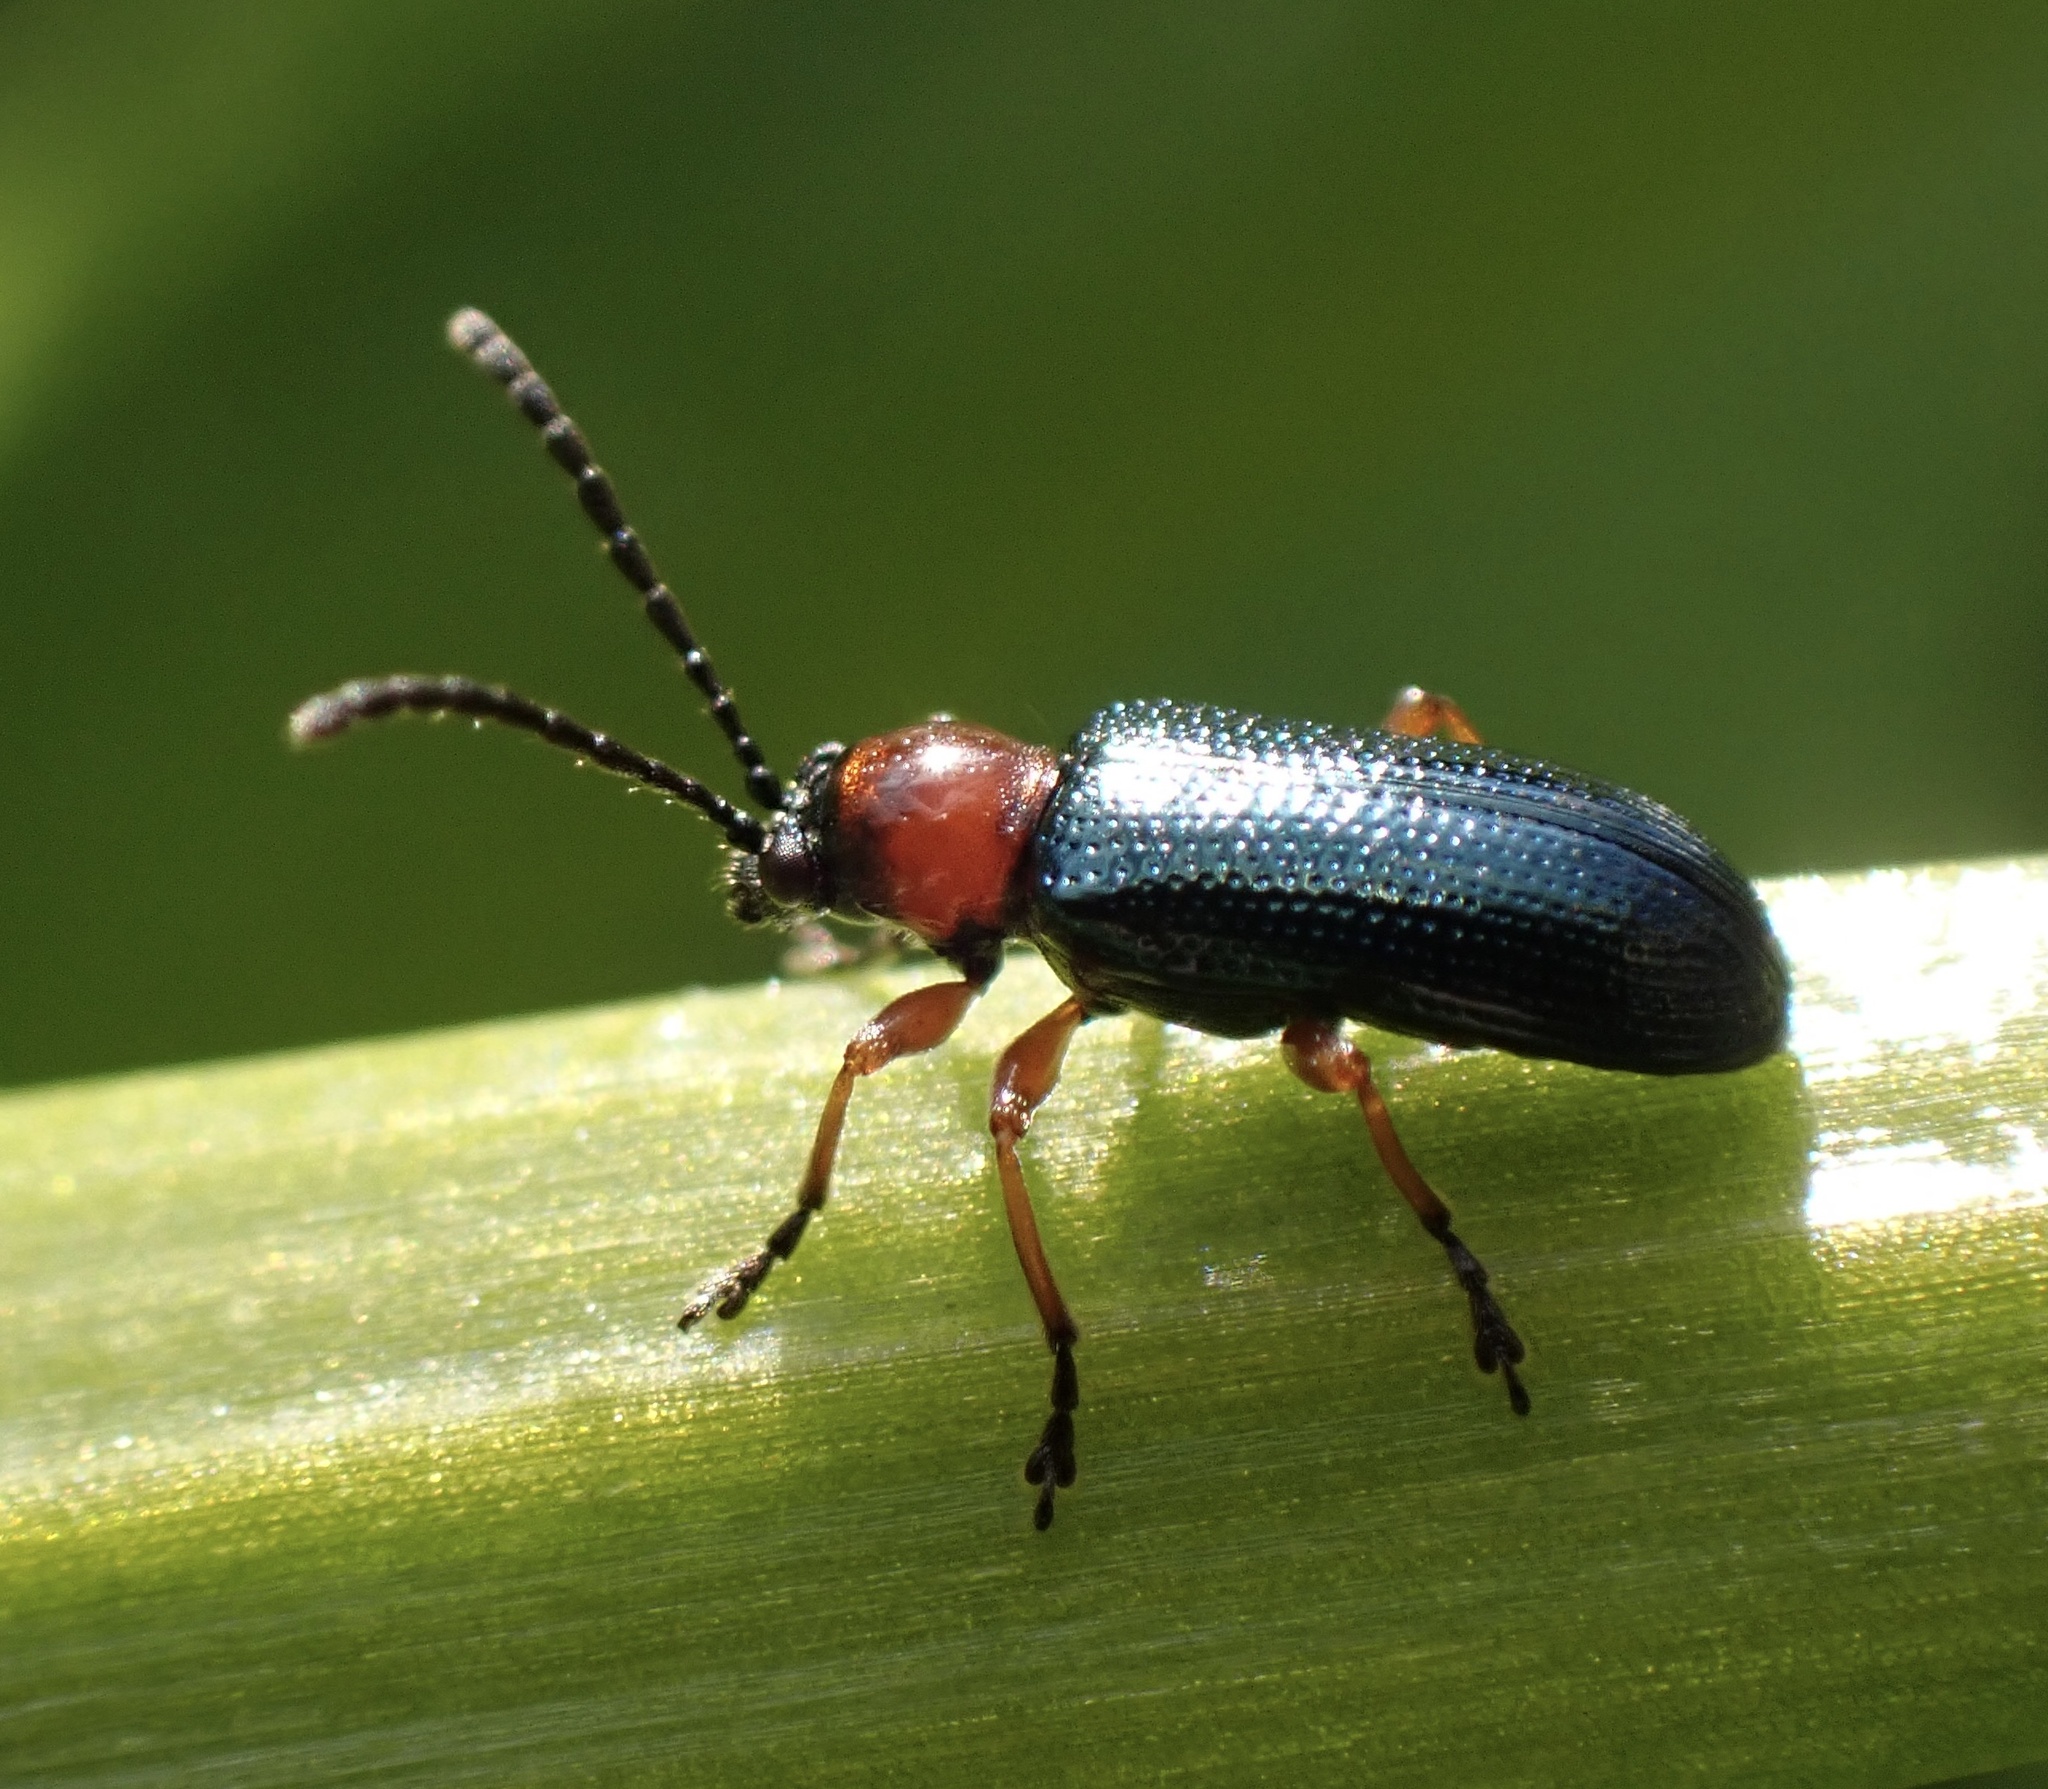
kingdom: Animalia
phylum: Arthropoda
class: Insecta
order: Coleoptera
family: Chrysomelidae
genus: Oulema
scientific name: Oulema
